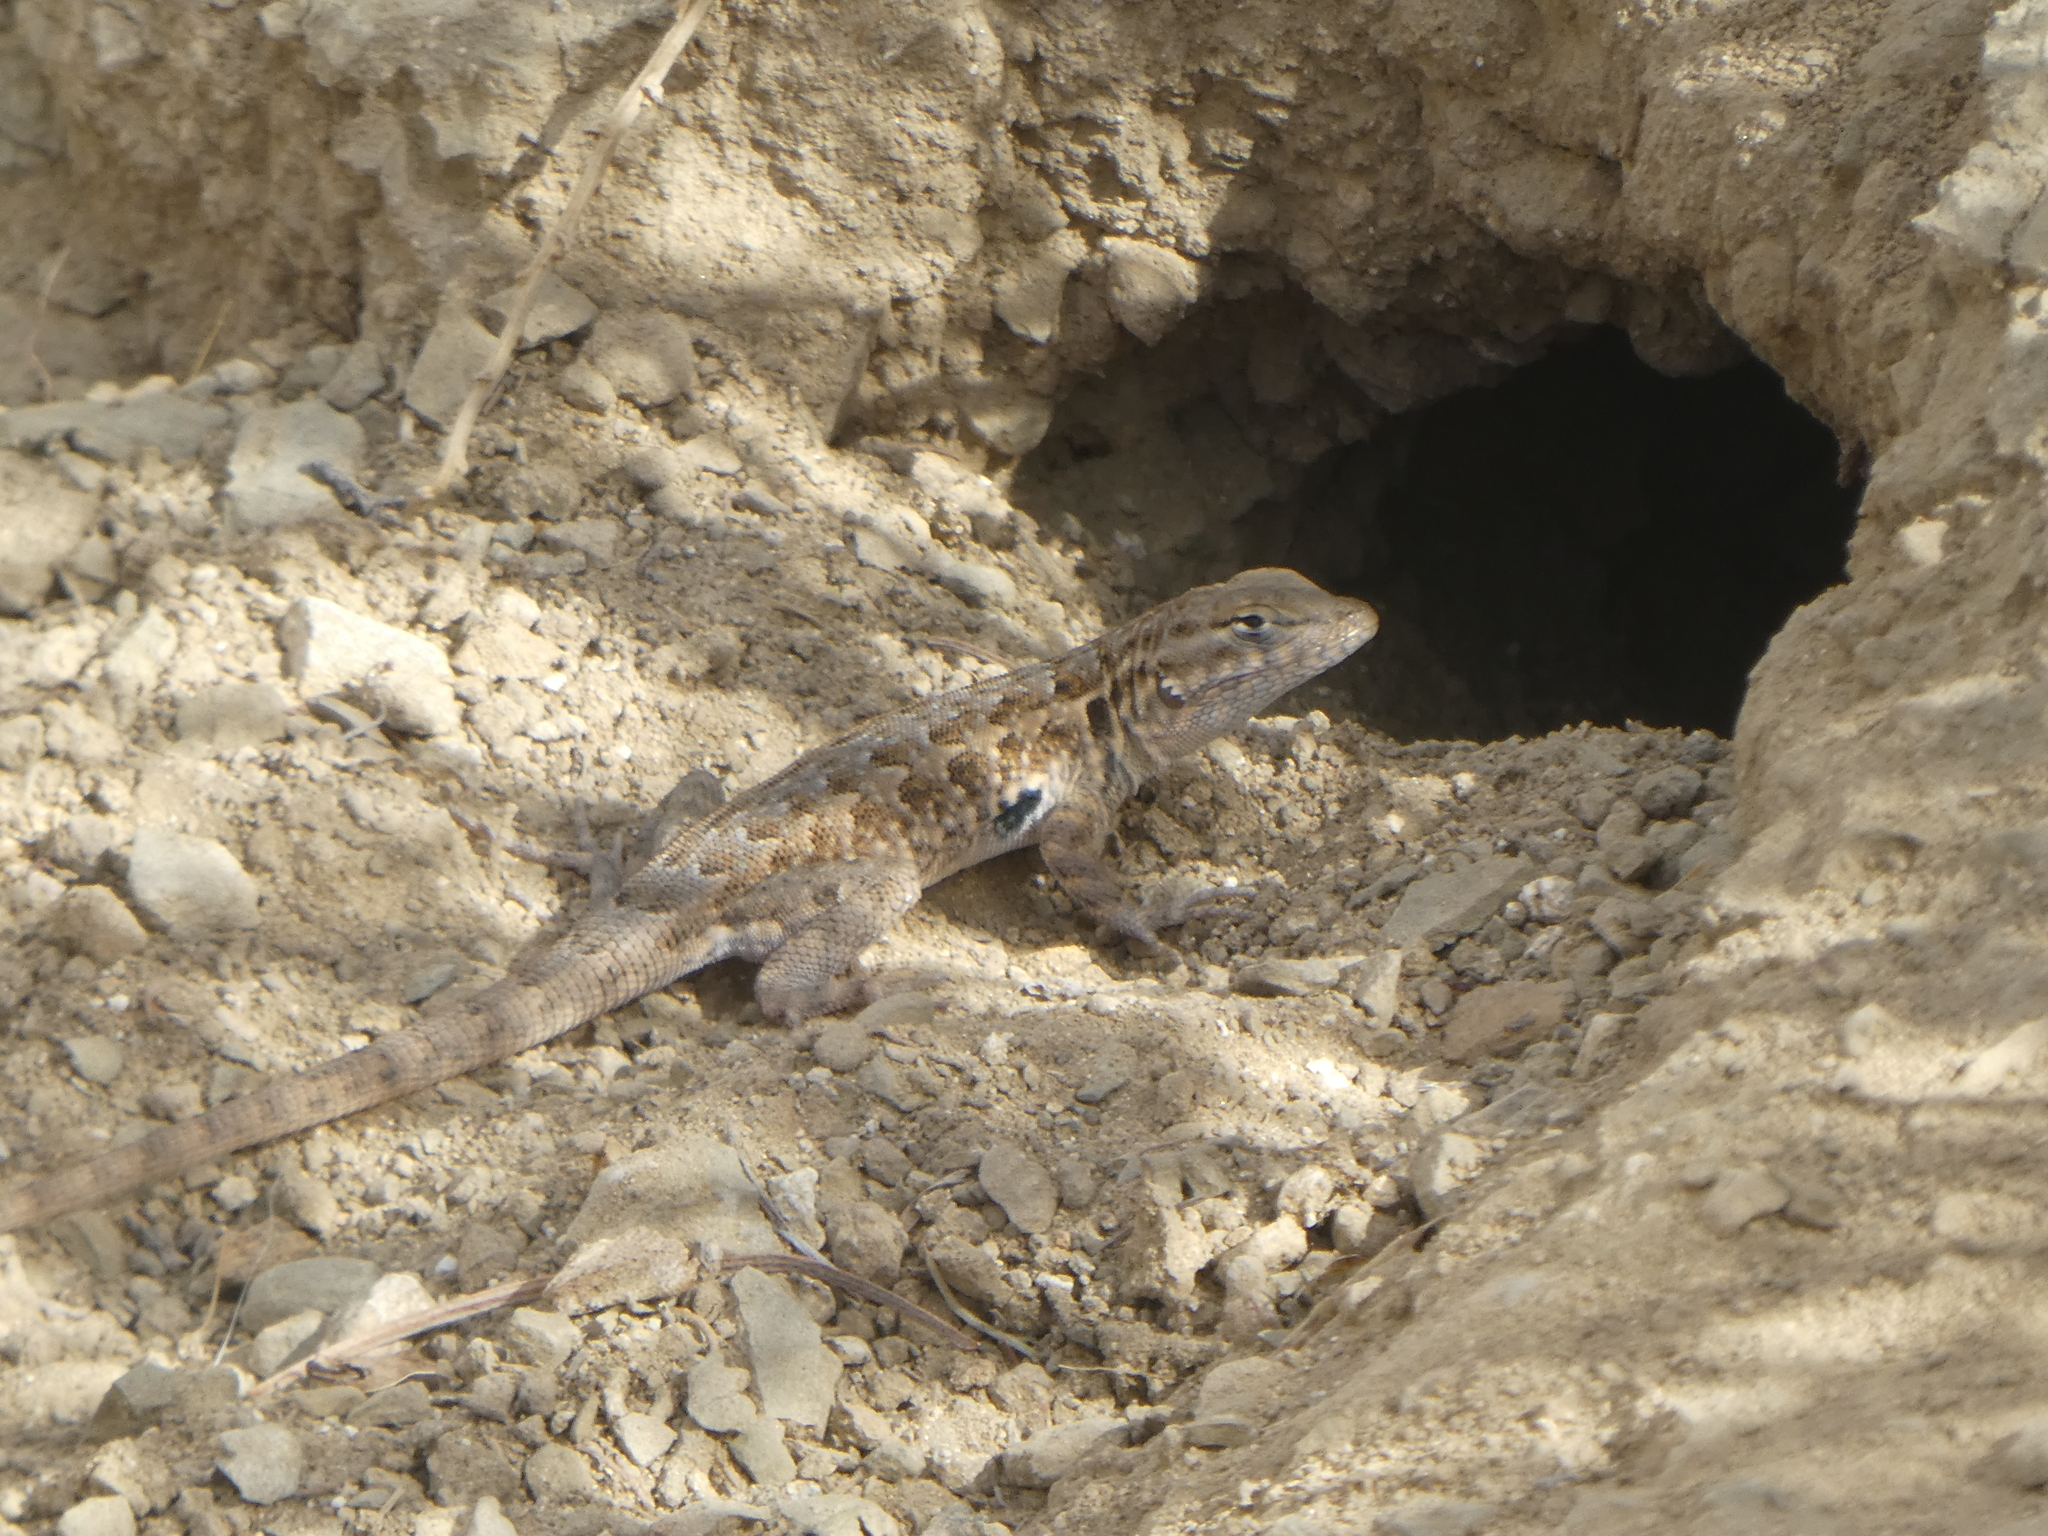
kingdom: Animalia
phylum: Chordata
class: Squamata
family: Phrynosomatidae
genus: Uta
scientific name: Uta stansburiana
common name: Side-blotched lizard
